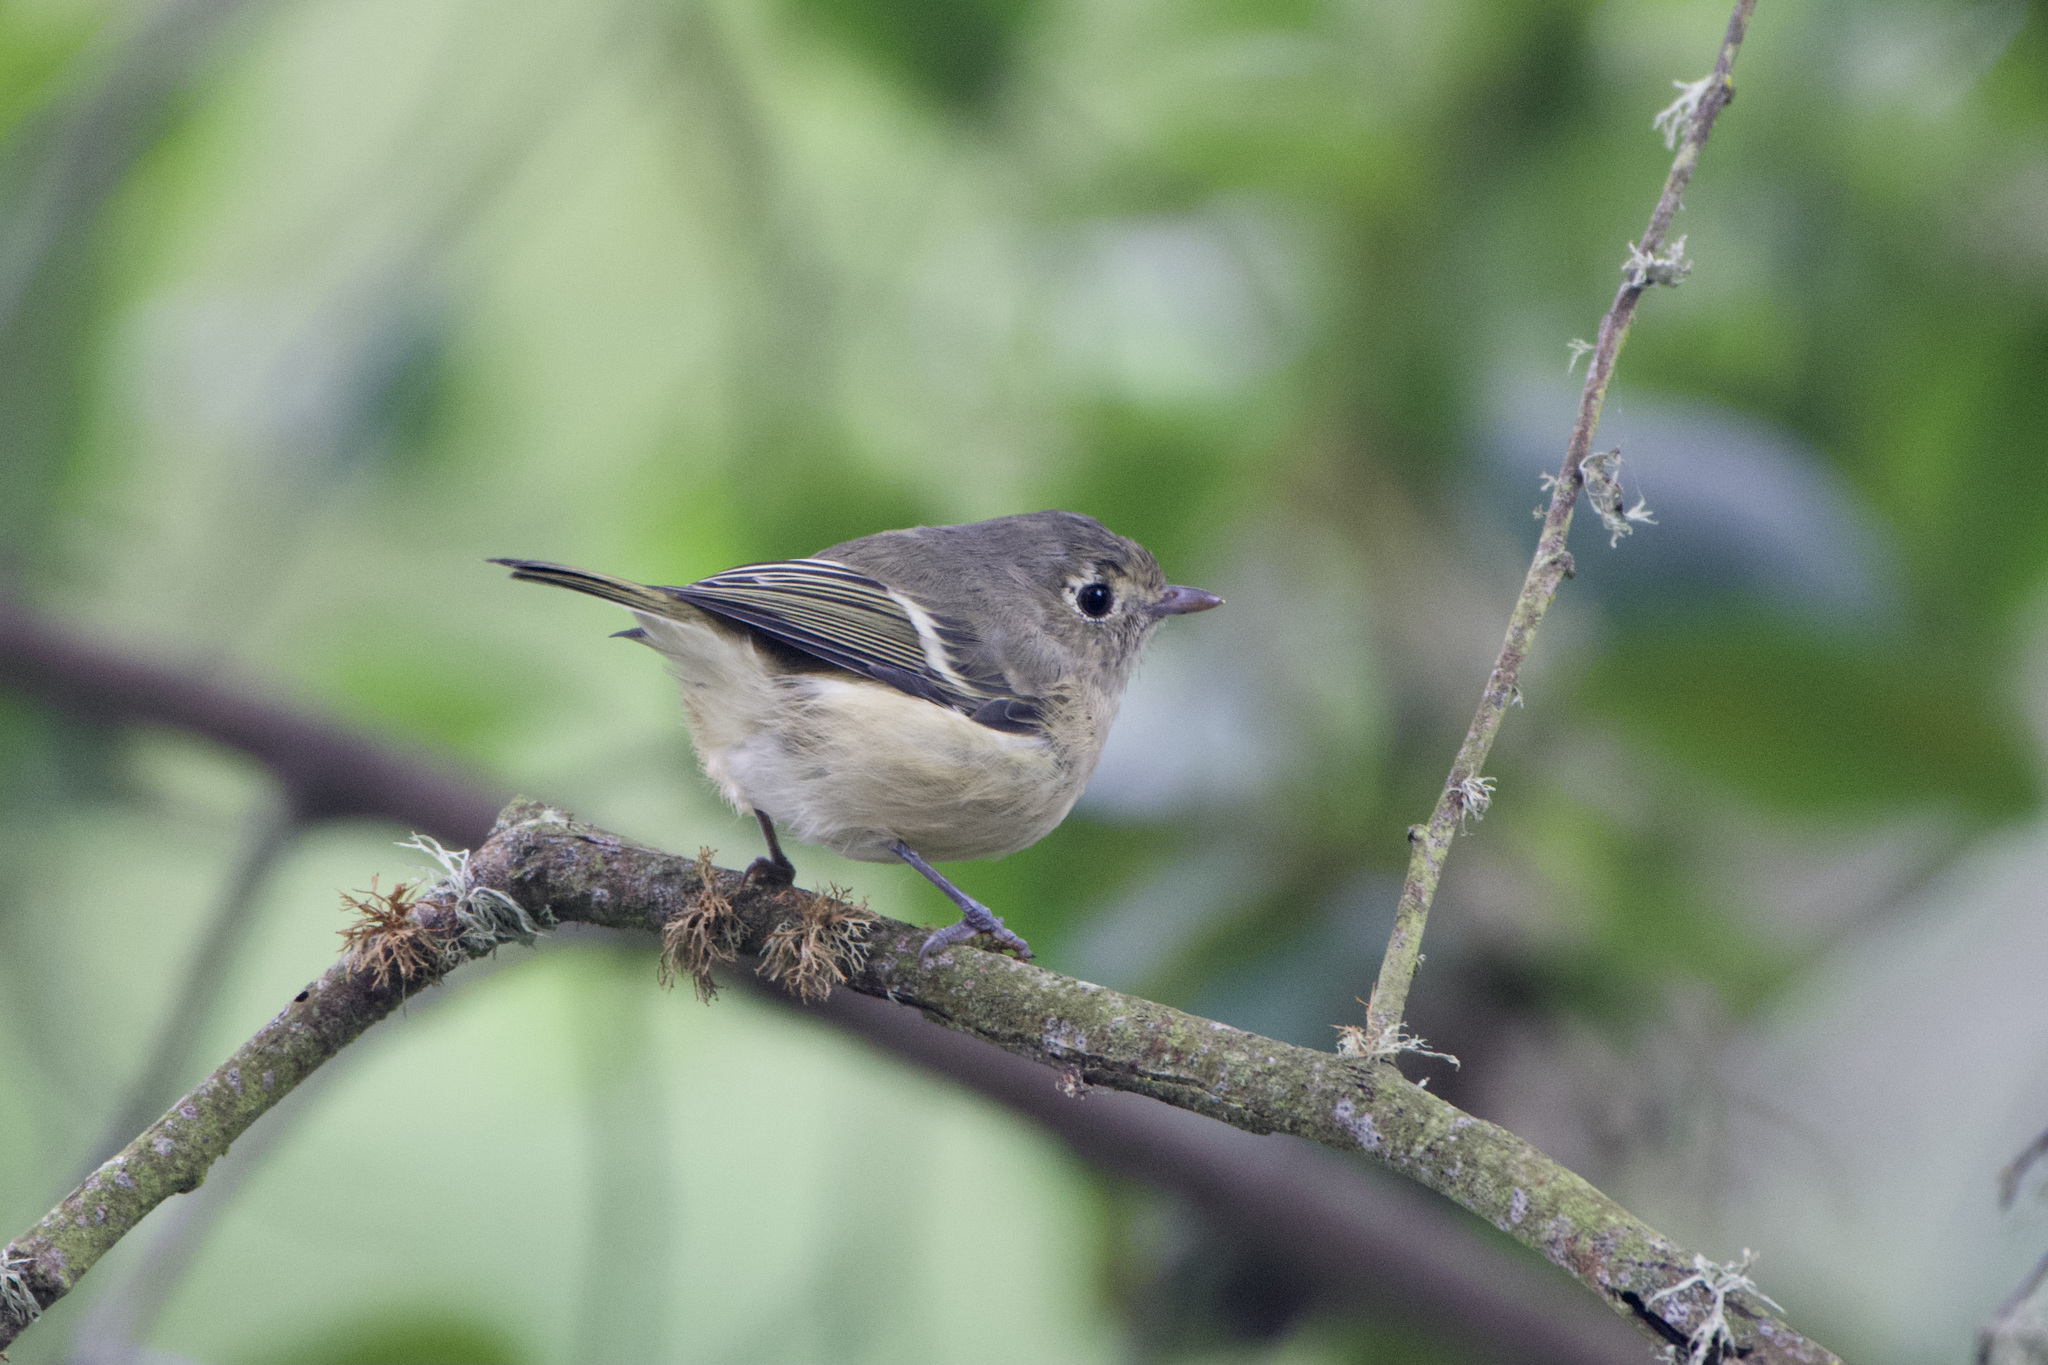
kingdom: Animalia
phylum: Chordata
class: Aves
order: Passeriformes
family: Vireonidae
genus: Vireo
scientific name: Vireo huttoni
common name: Hutton's vireo
